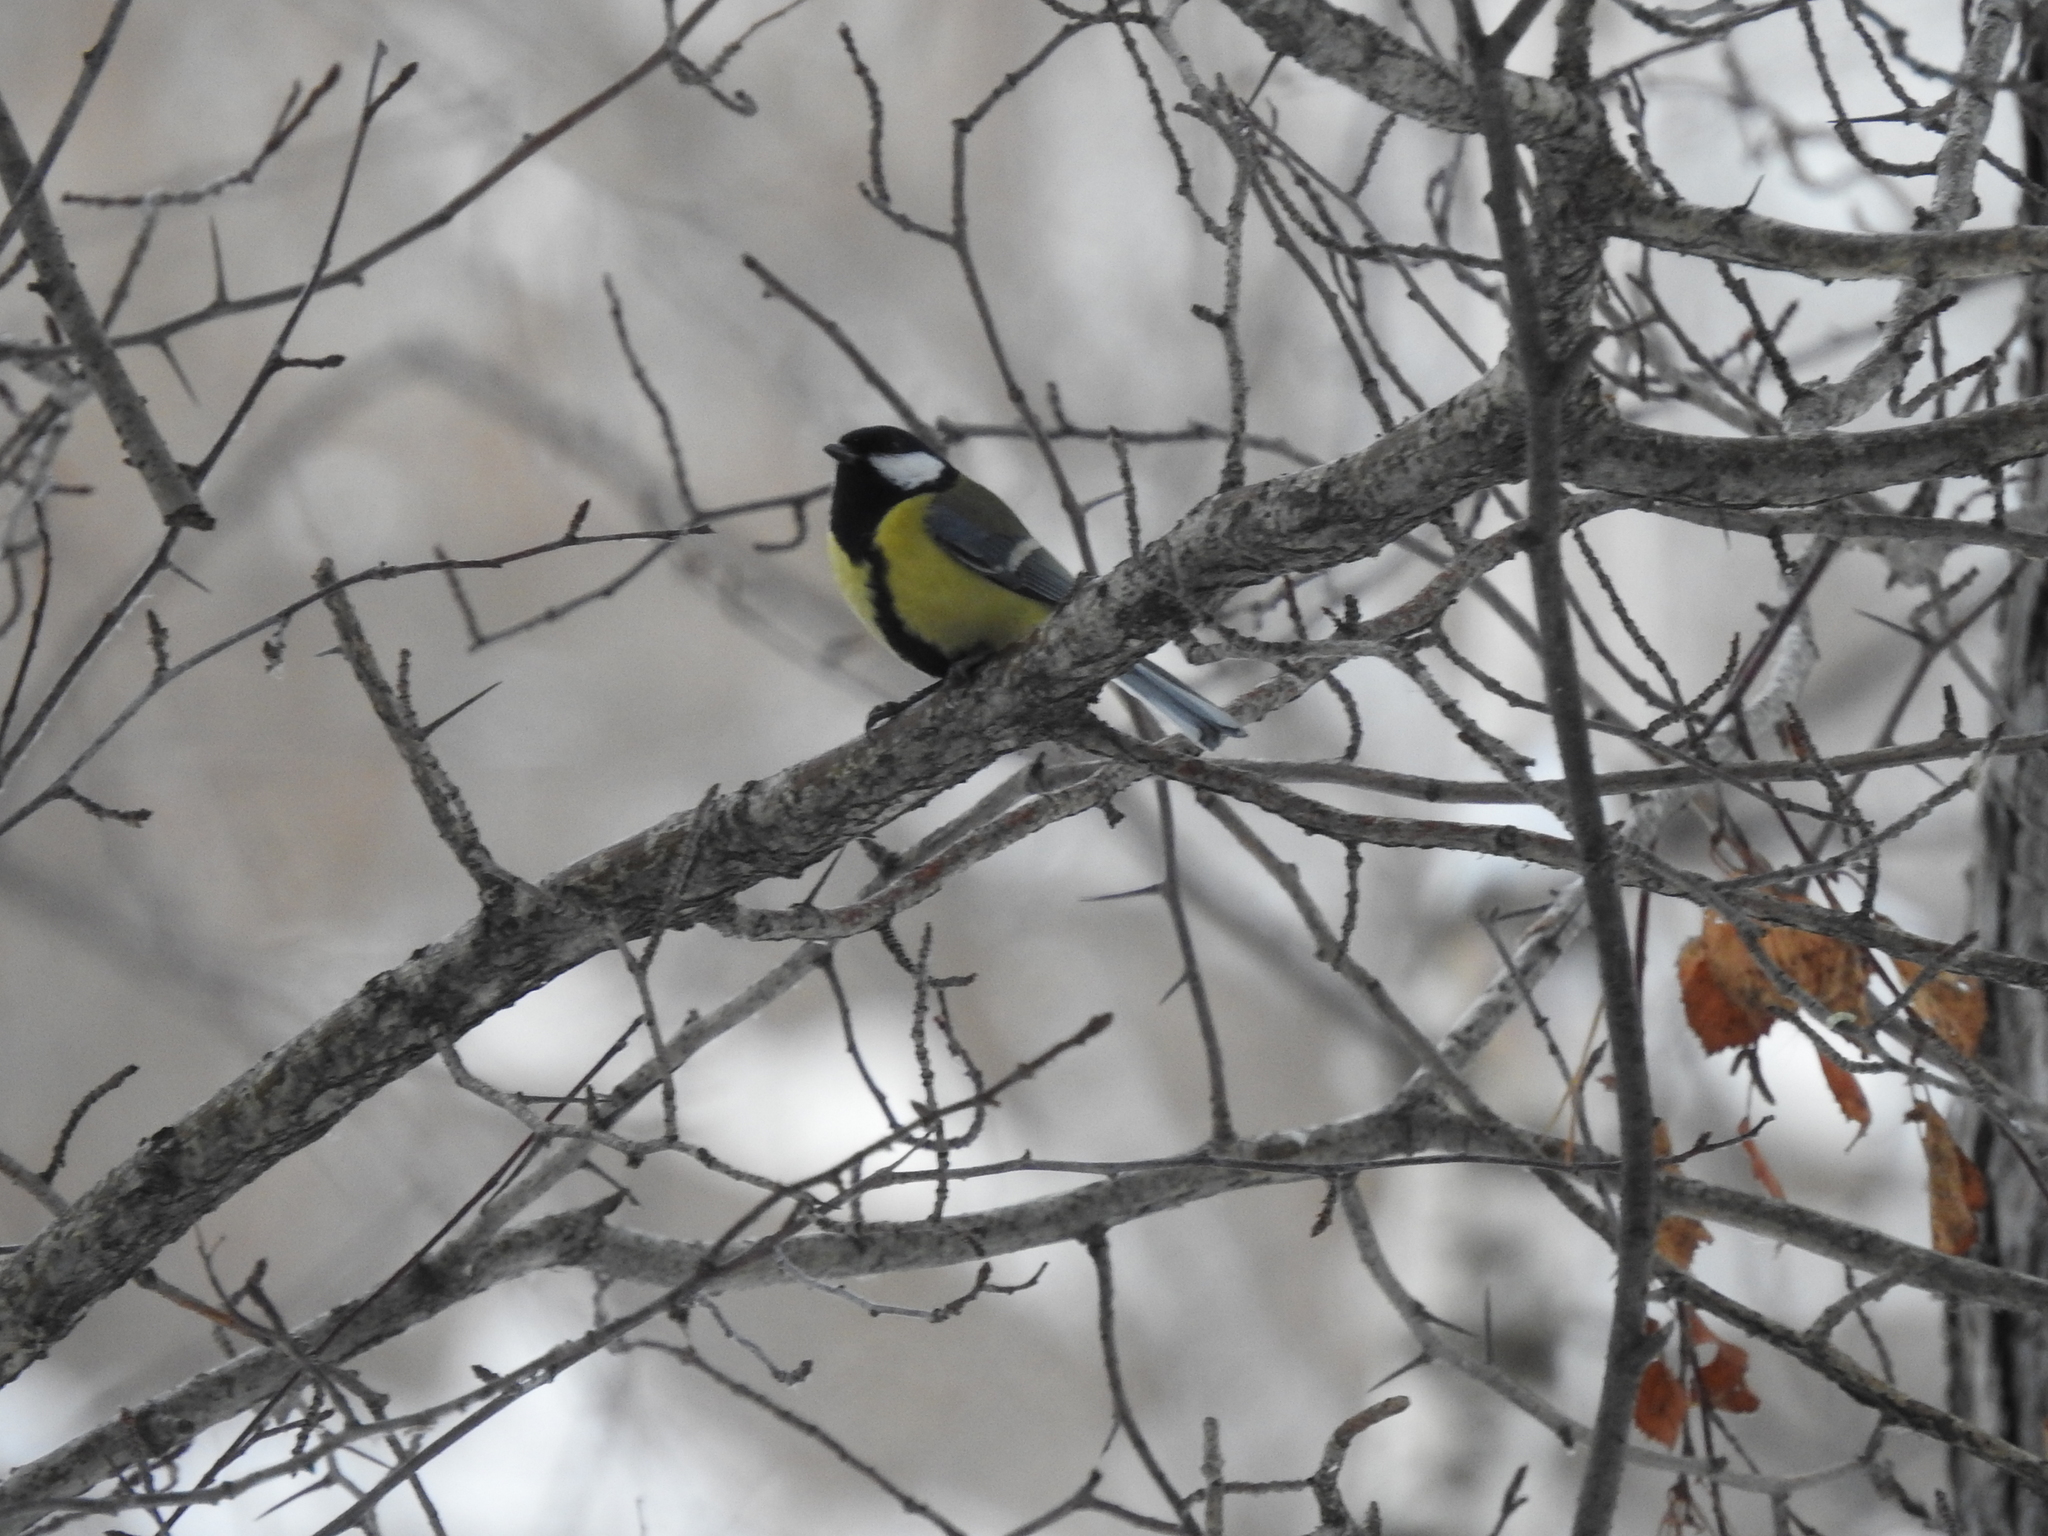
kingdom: Animalia
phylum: Chordata
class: Aves
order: Passeriformes
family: Paridae
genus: Parus
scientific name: Parus major
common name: Great tit
